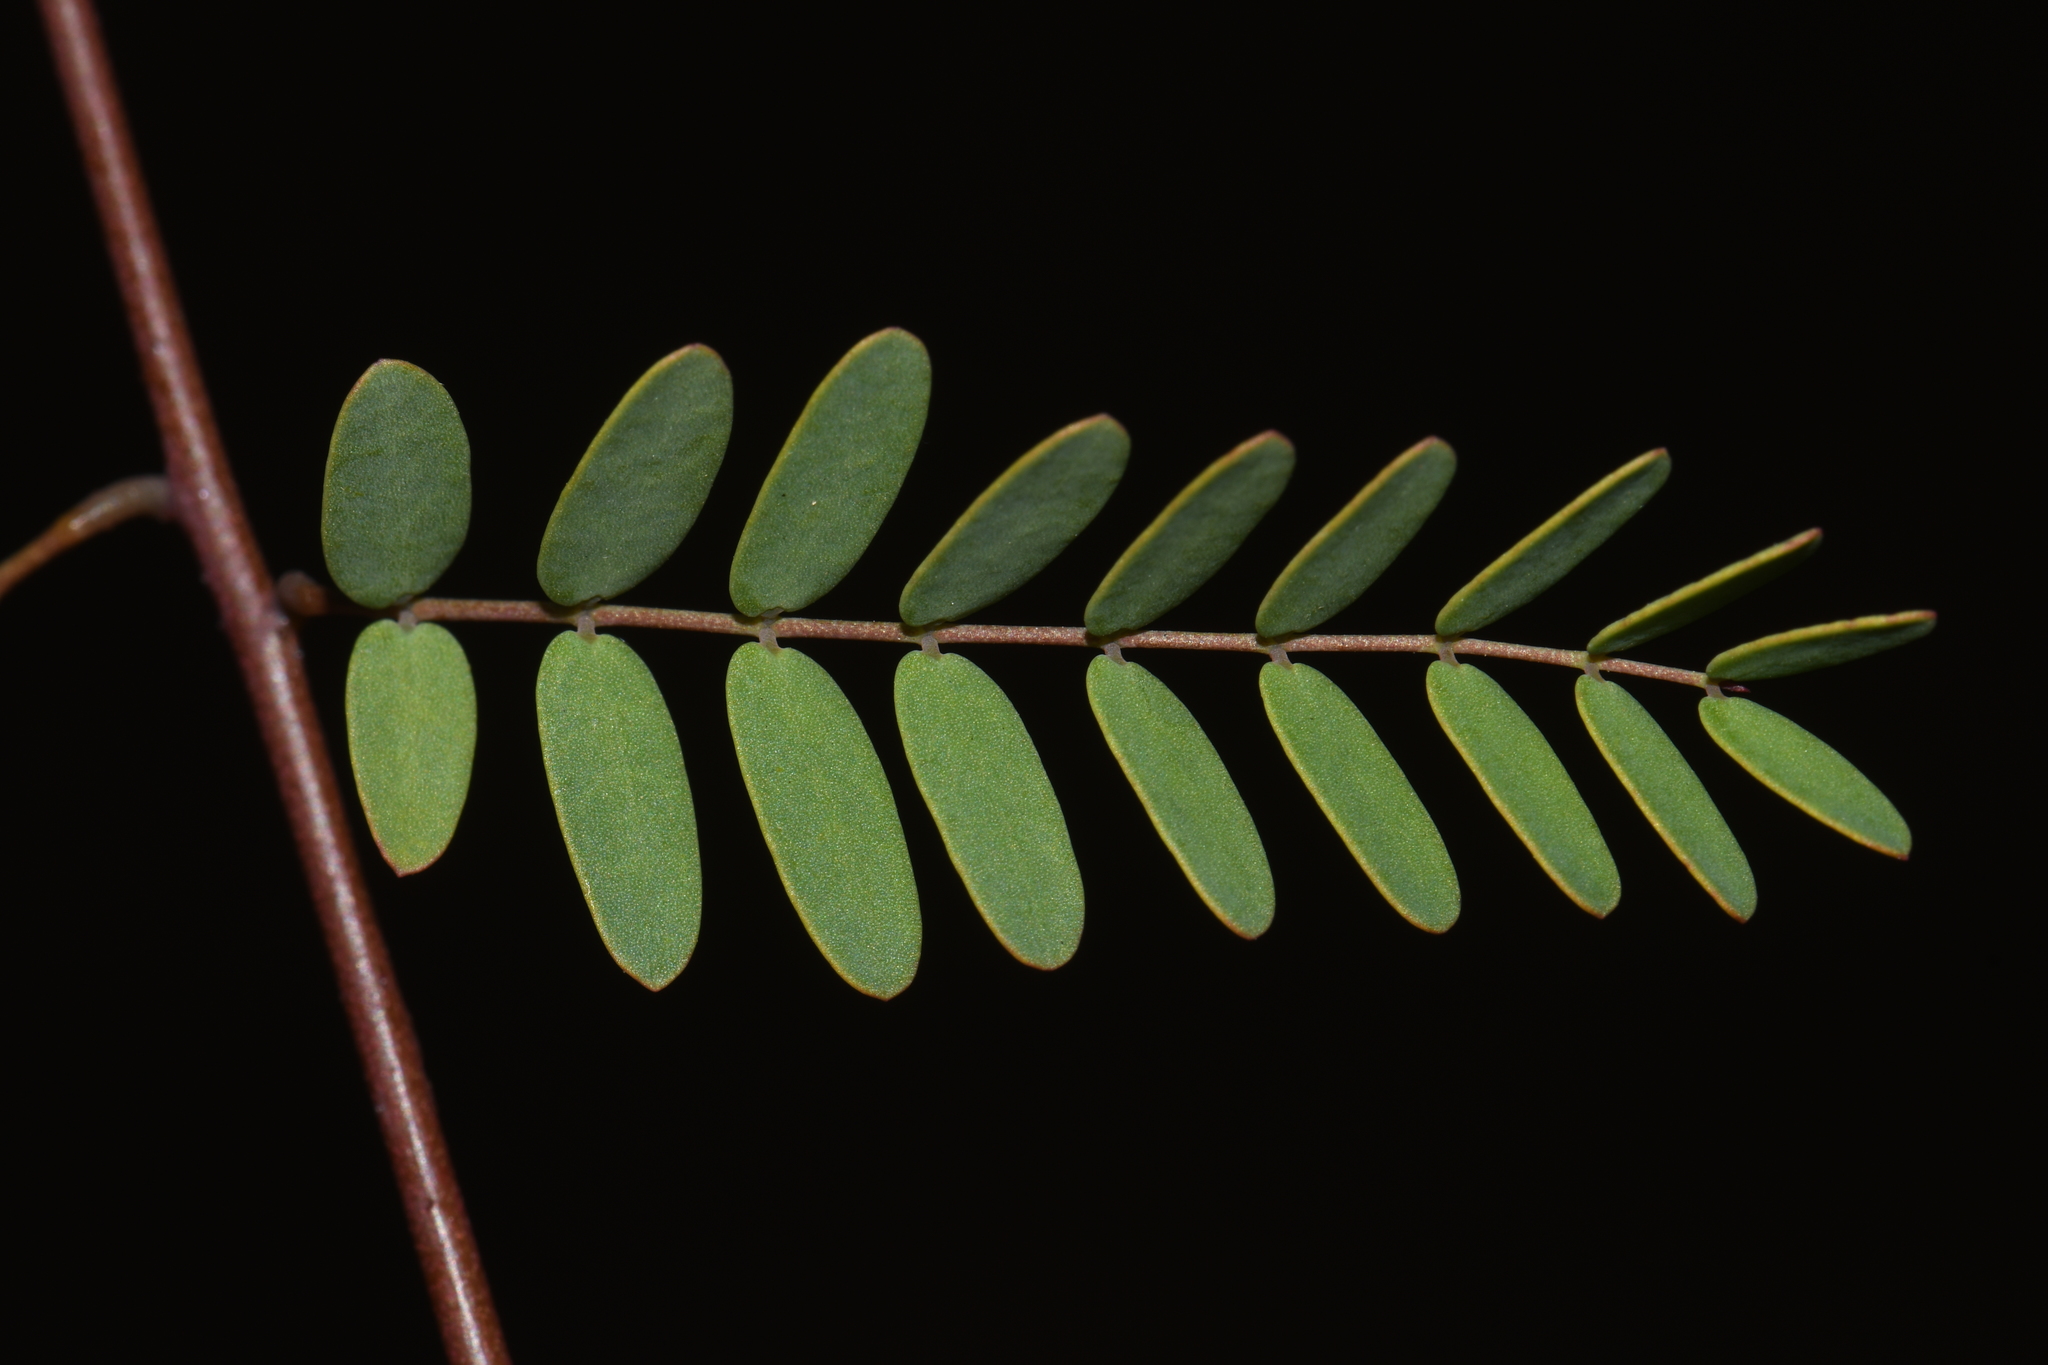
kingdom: Plantae
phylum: Tracheophyta
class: Magnoliopsida
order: Fabales
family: Fabaceae
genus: Erythrostemon
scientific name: Erythrostemon gilliesii
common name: Bird-of-paradise shrub
